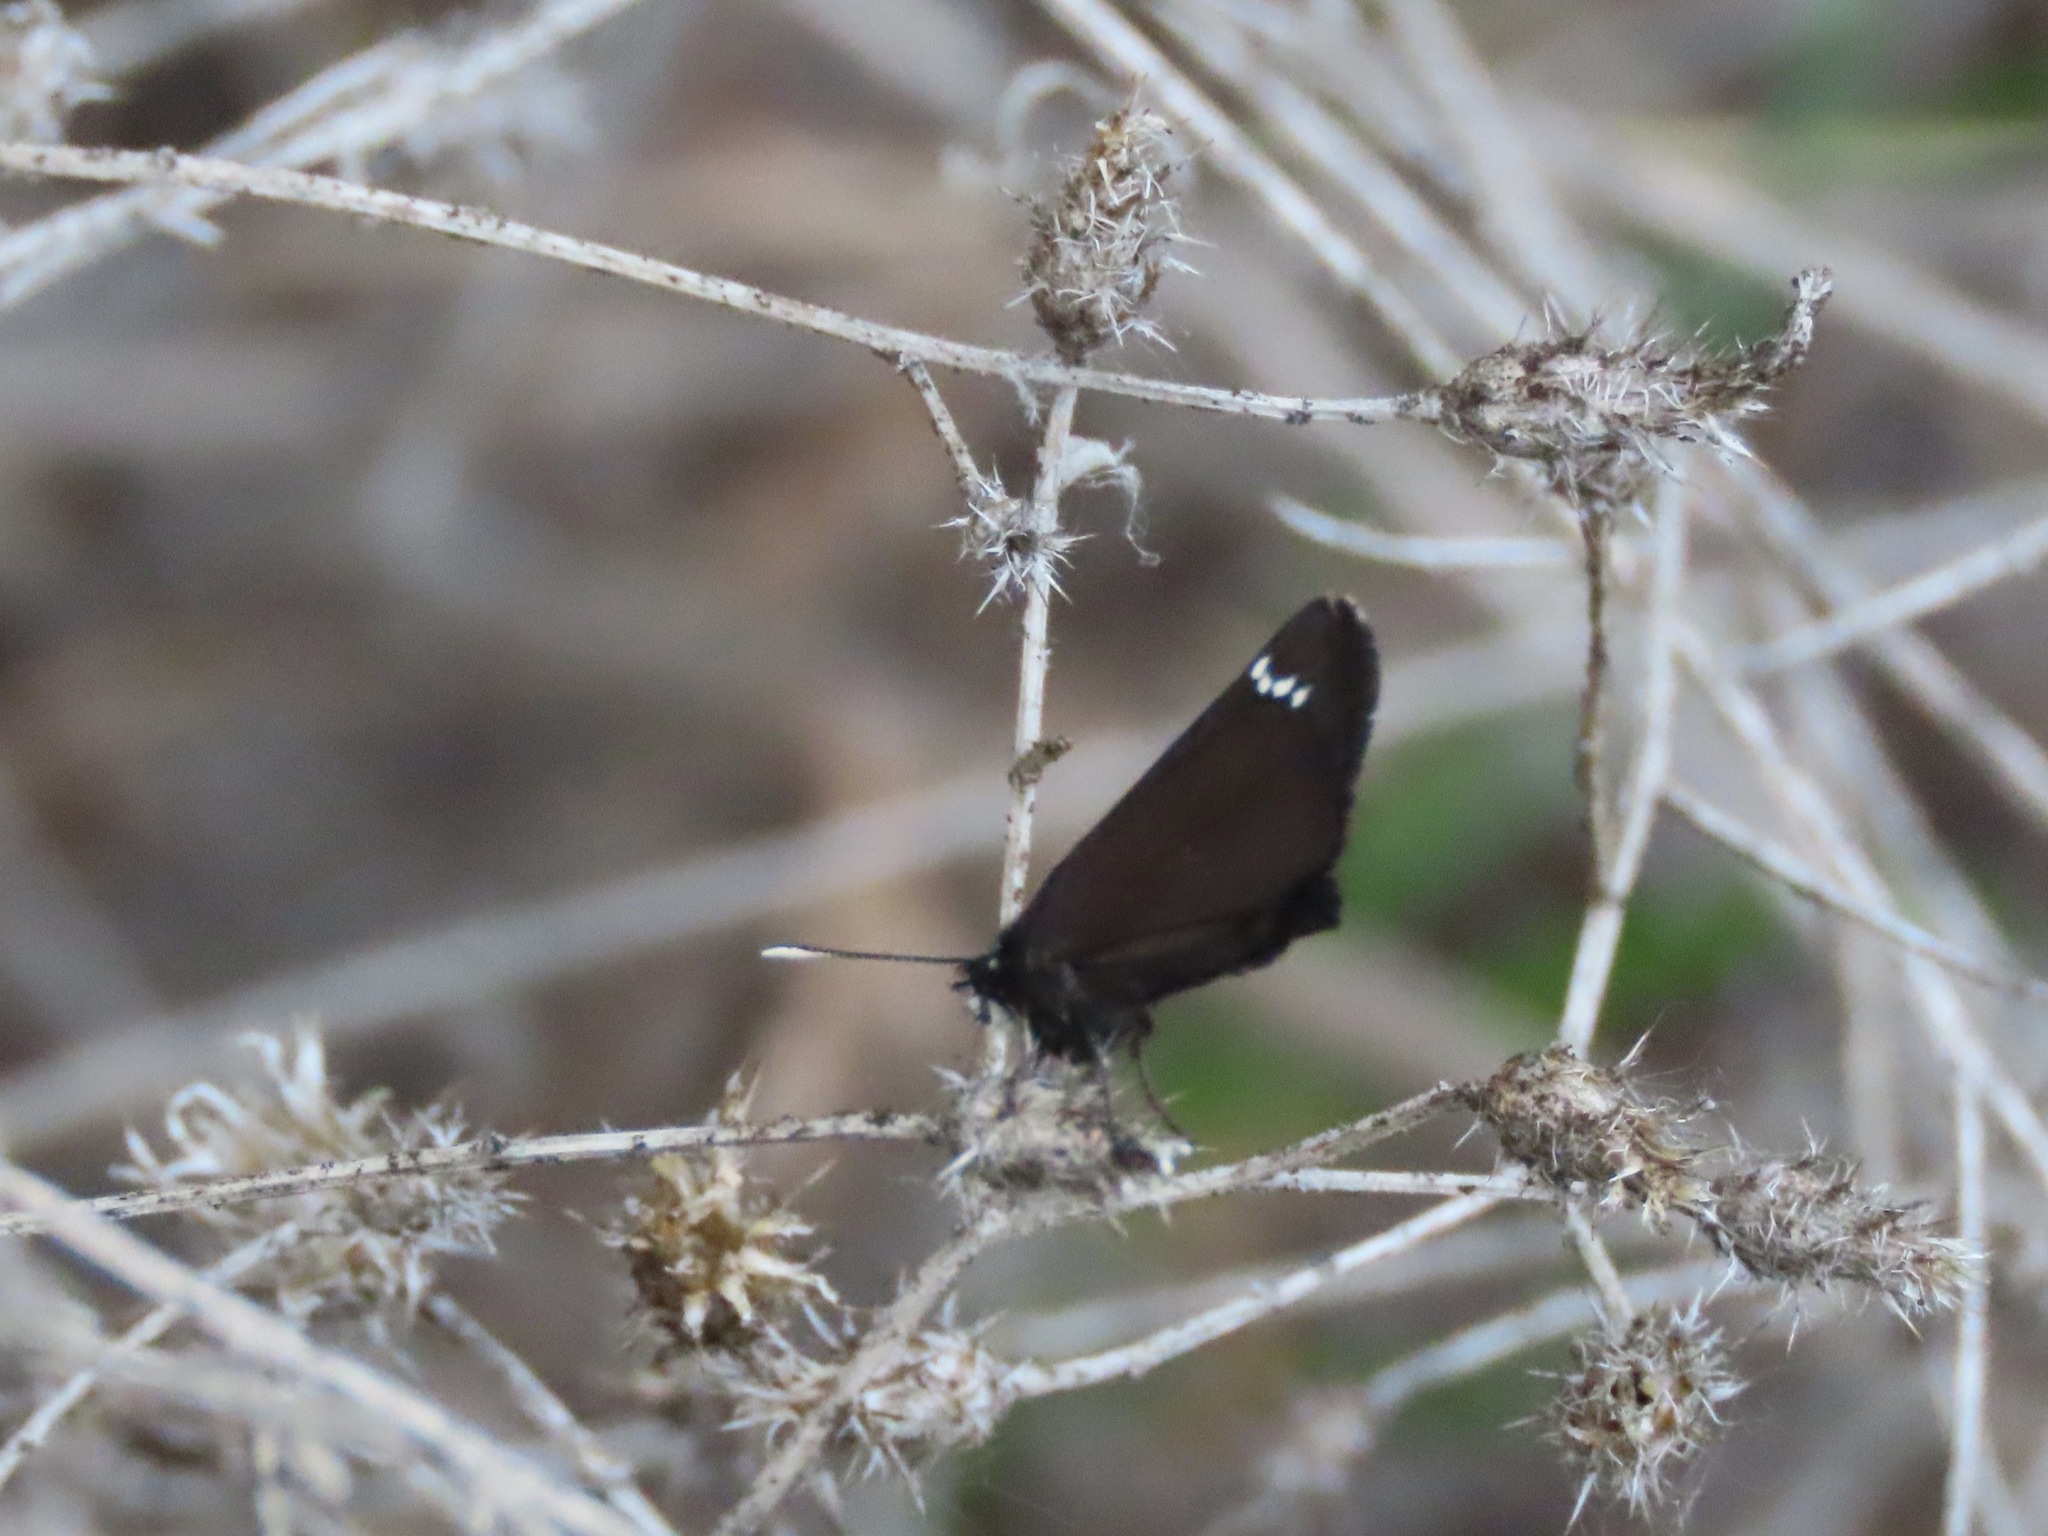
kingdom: Animalia
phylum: Arthropoda
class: Insecta
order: Lepidoptera
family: Hesperiidae
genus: Pholisora
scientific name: Pholisora catullus
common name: Common sootywing
